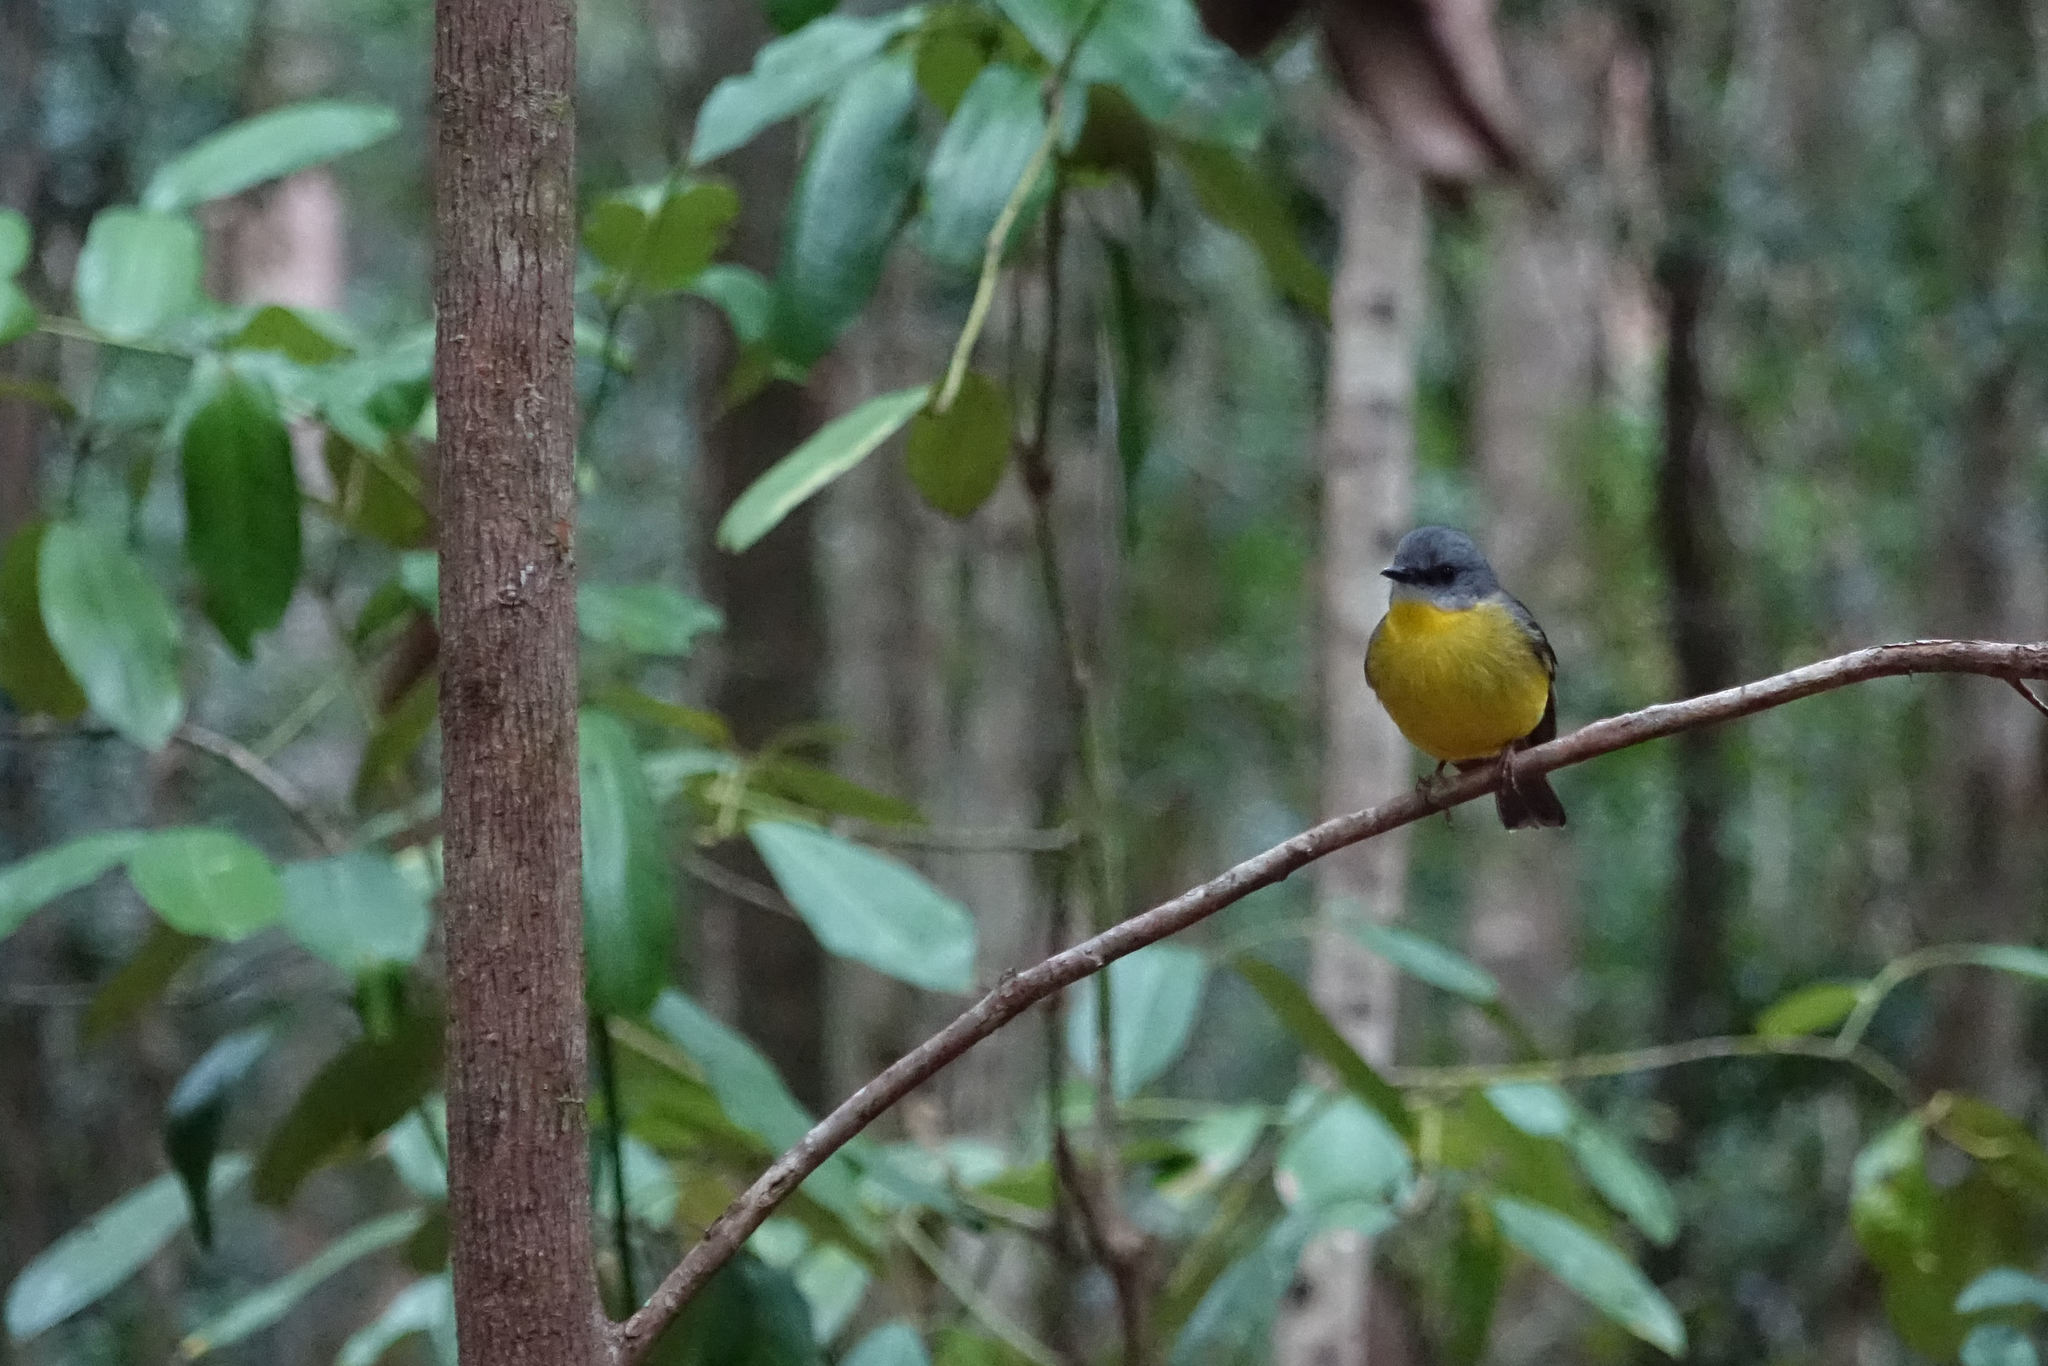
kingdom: Animalia
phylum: Chordata
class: Aves
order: Passeriformes
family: Petroicidae
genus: Eopsaltria
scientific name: Eopsaltria australis
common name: Eastern yellow robin
